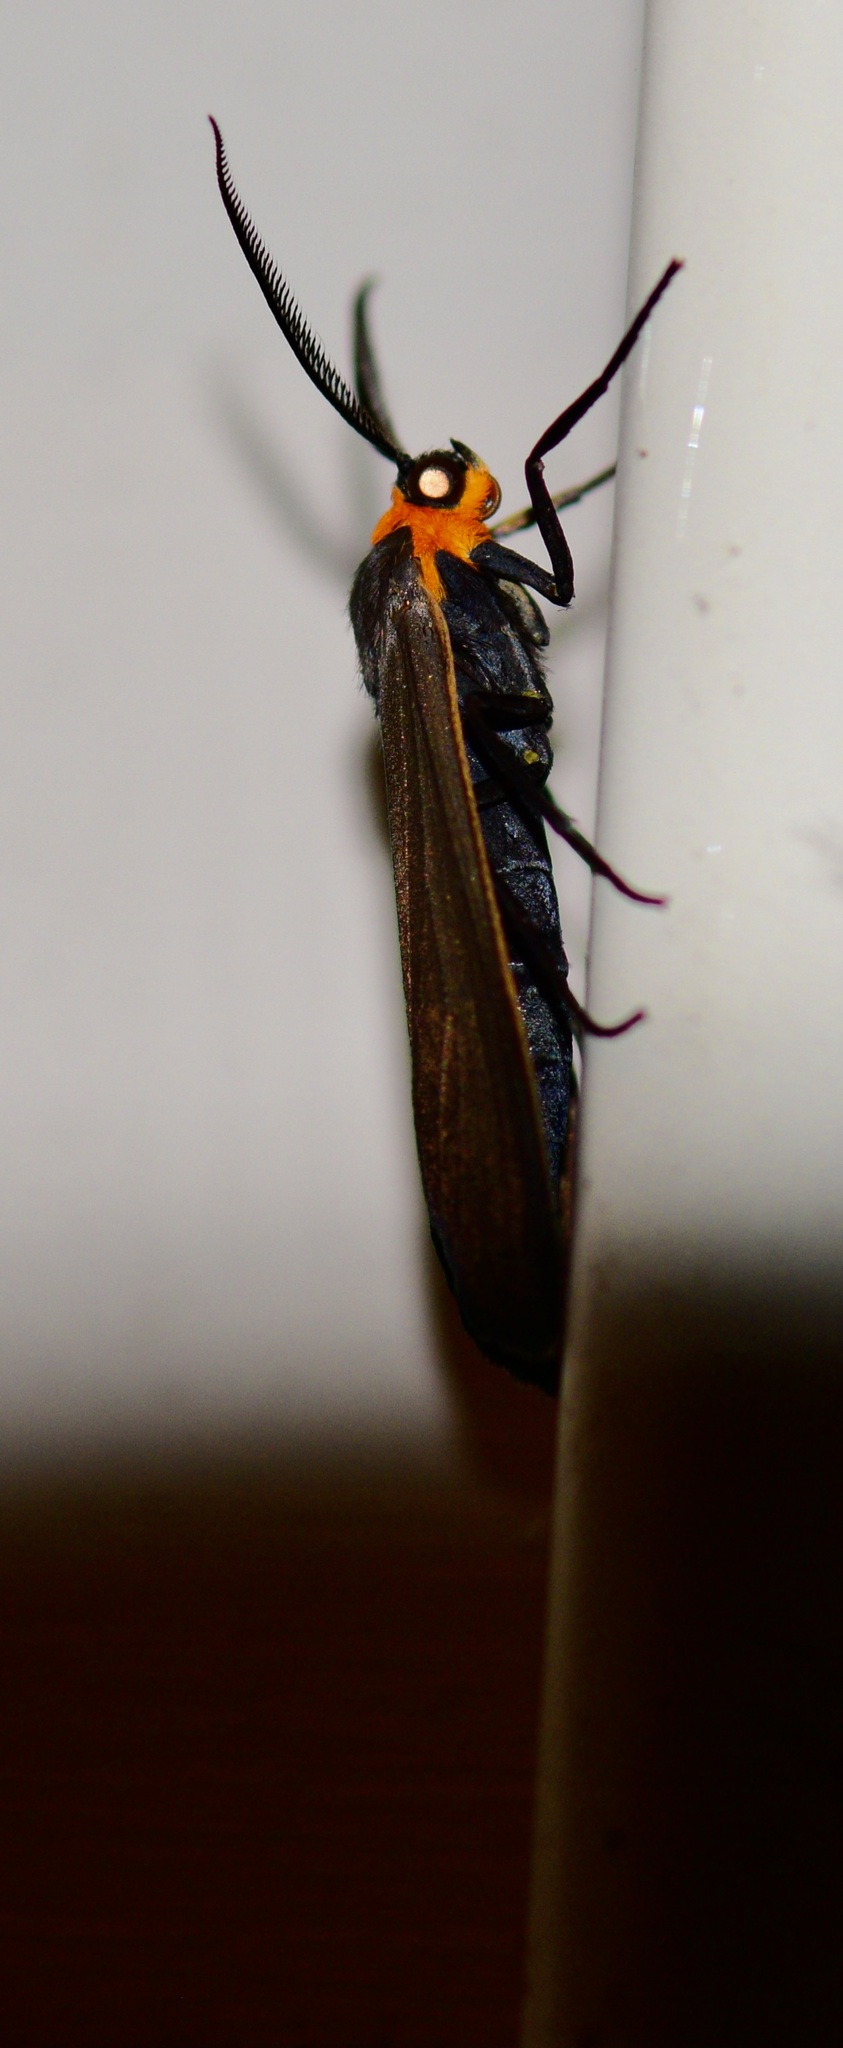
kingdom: Animalia
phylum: Arthropoda
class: Insecta
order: Lepidoptera
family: Erebidae
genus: Cisseps
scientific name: Cisseps fulvicollis
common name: Yellow-collared scape moth
